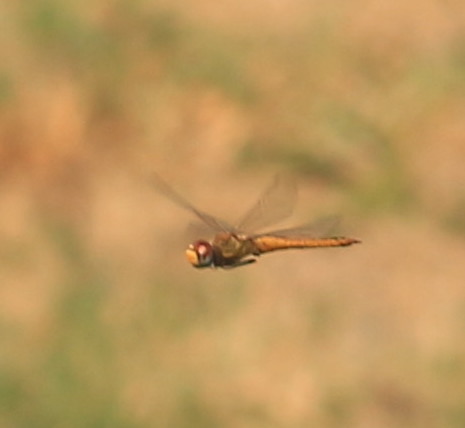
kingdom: Animalia
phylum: Arthropoda
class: Insecta
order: Odonata
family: Libellulidae
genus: Pantala
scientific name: Pantala flavescens
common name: Wandering glider
